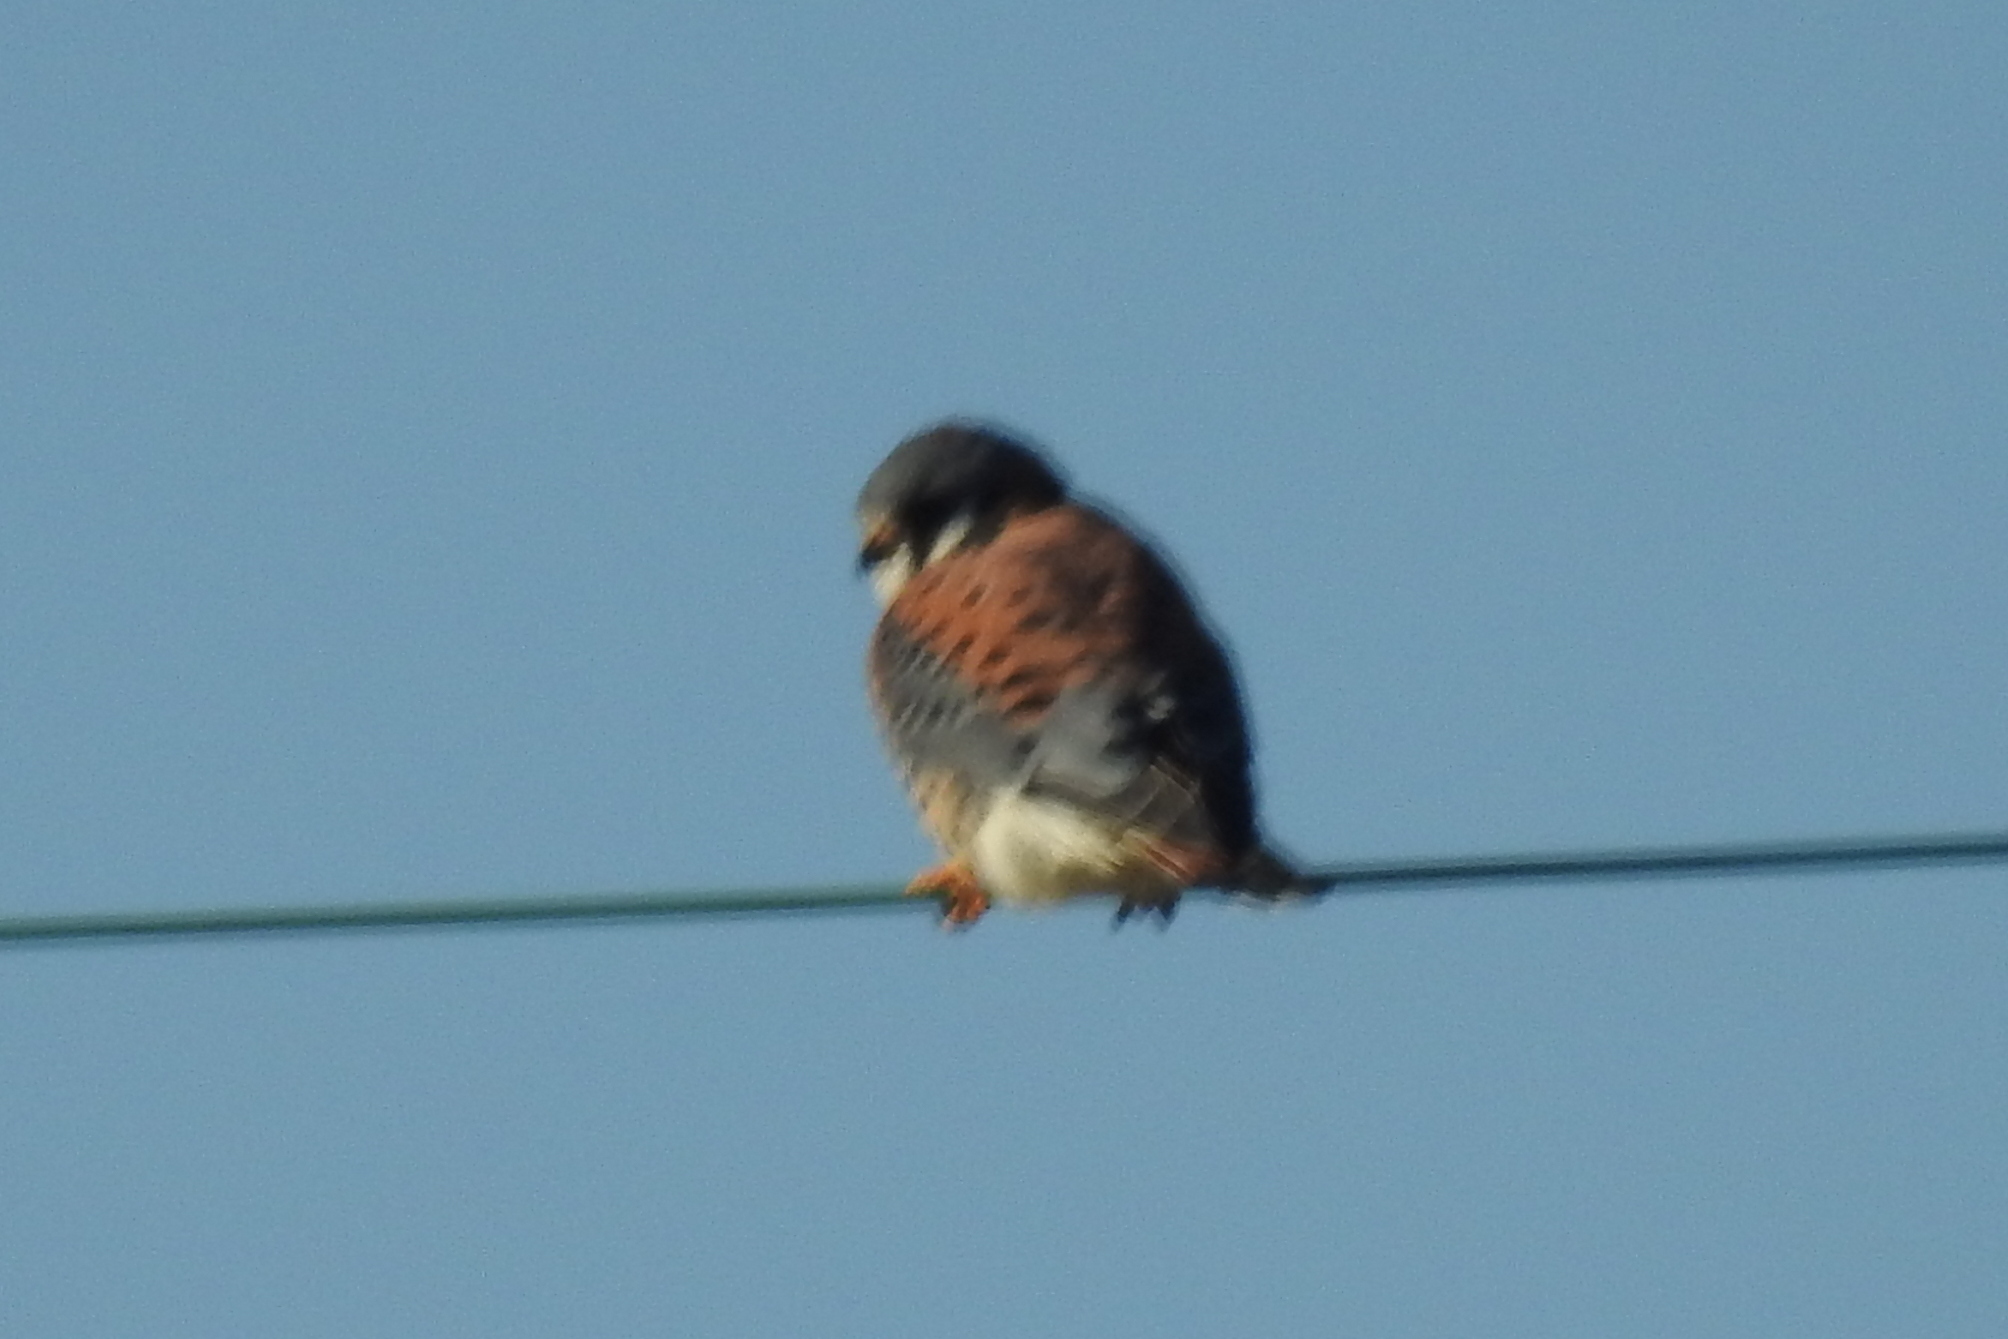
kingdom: Animalia
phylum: Chordata
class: Aves
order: Falconiformes
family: Falconidae
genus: Falco
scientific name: Falco sparverius
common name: American kestrel
